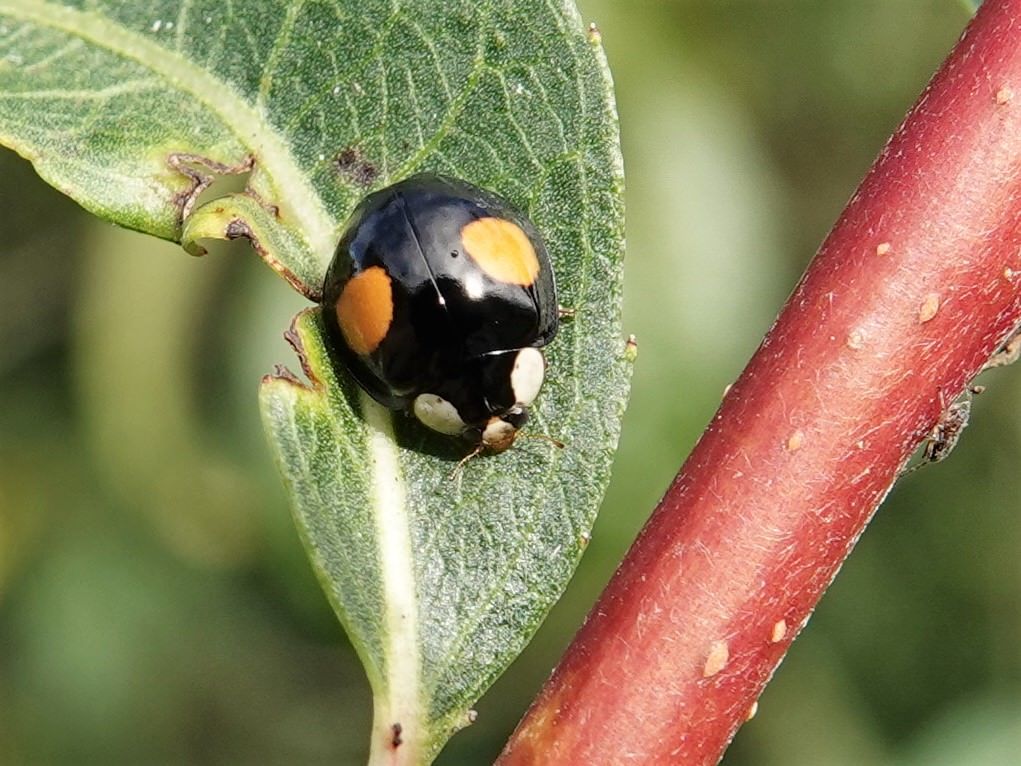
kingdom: Animalia
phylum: Arthropoda
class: Insecta
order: Coleoptera
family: Coccinellidae
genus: Harmonia
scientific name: Harmonia axyridis
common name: Harlequin ladybird
